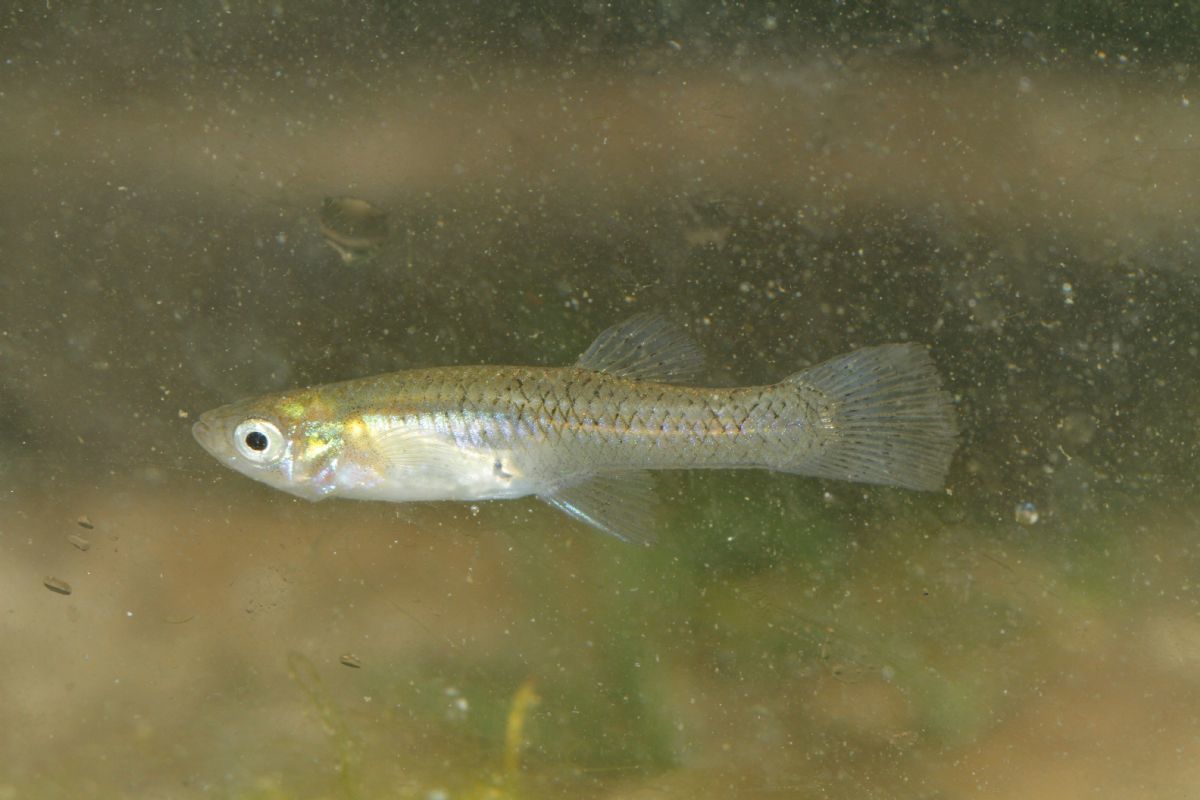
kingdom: Animalia
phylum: Chordata
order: Cyprinodontiformes
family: Poeciliidae
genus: Gambusia
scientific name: Gambusia holbrooki
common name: Eastern mosquitofish
